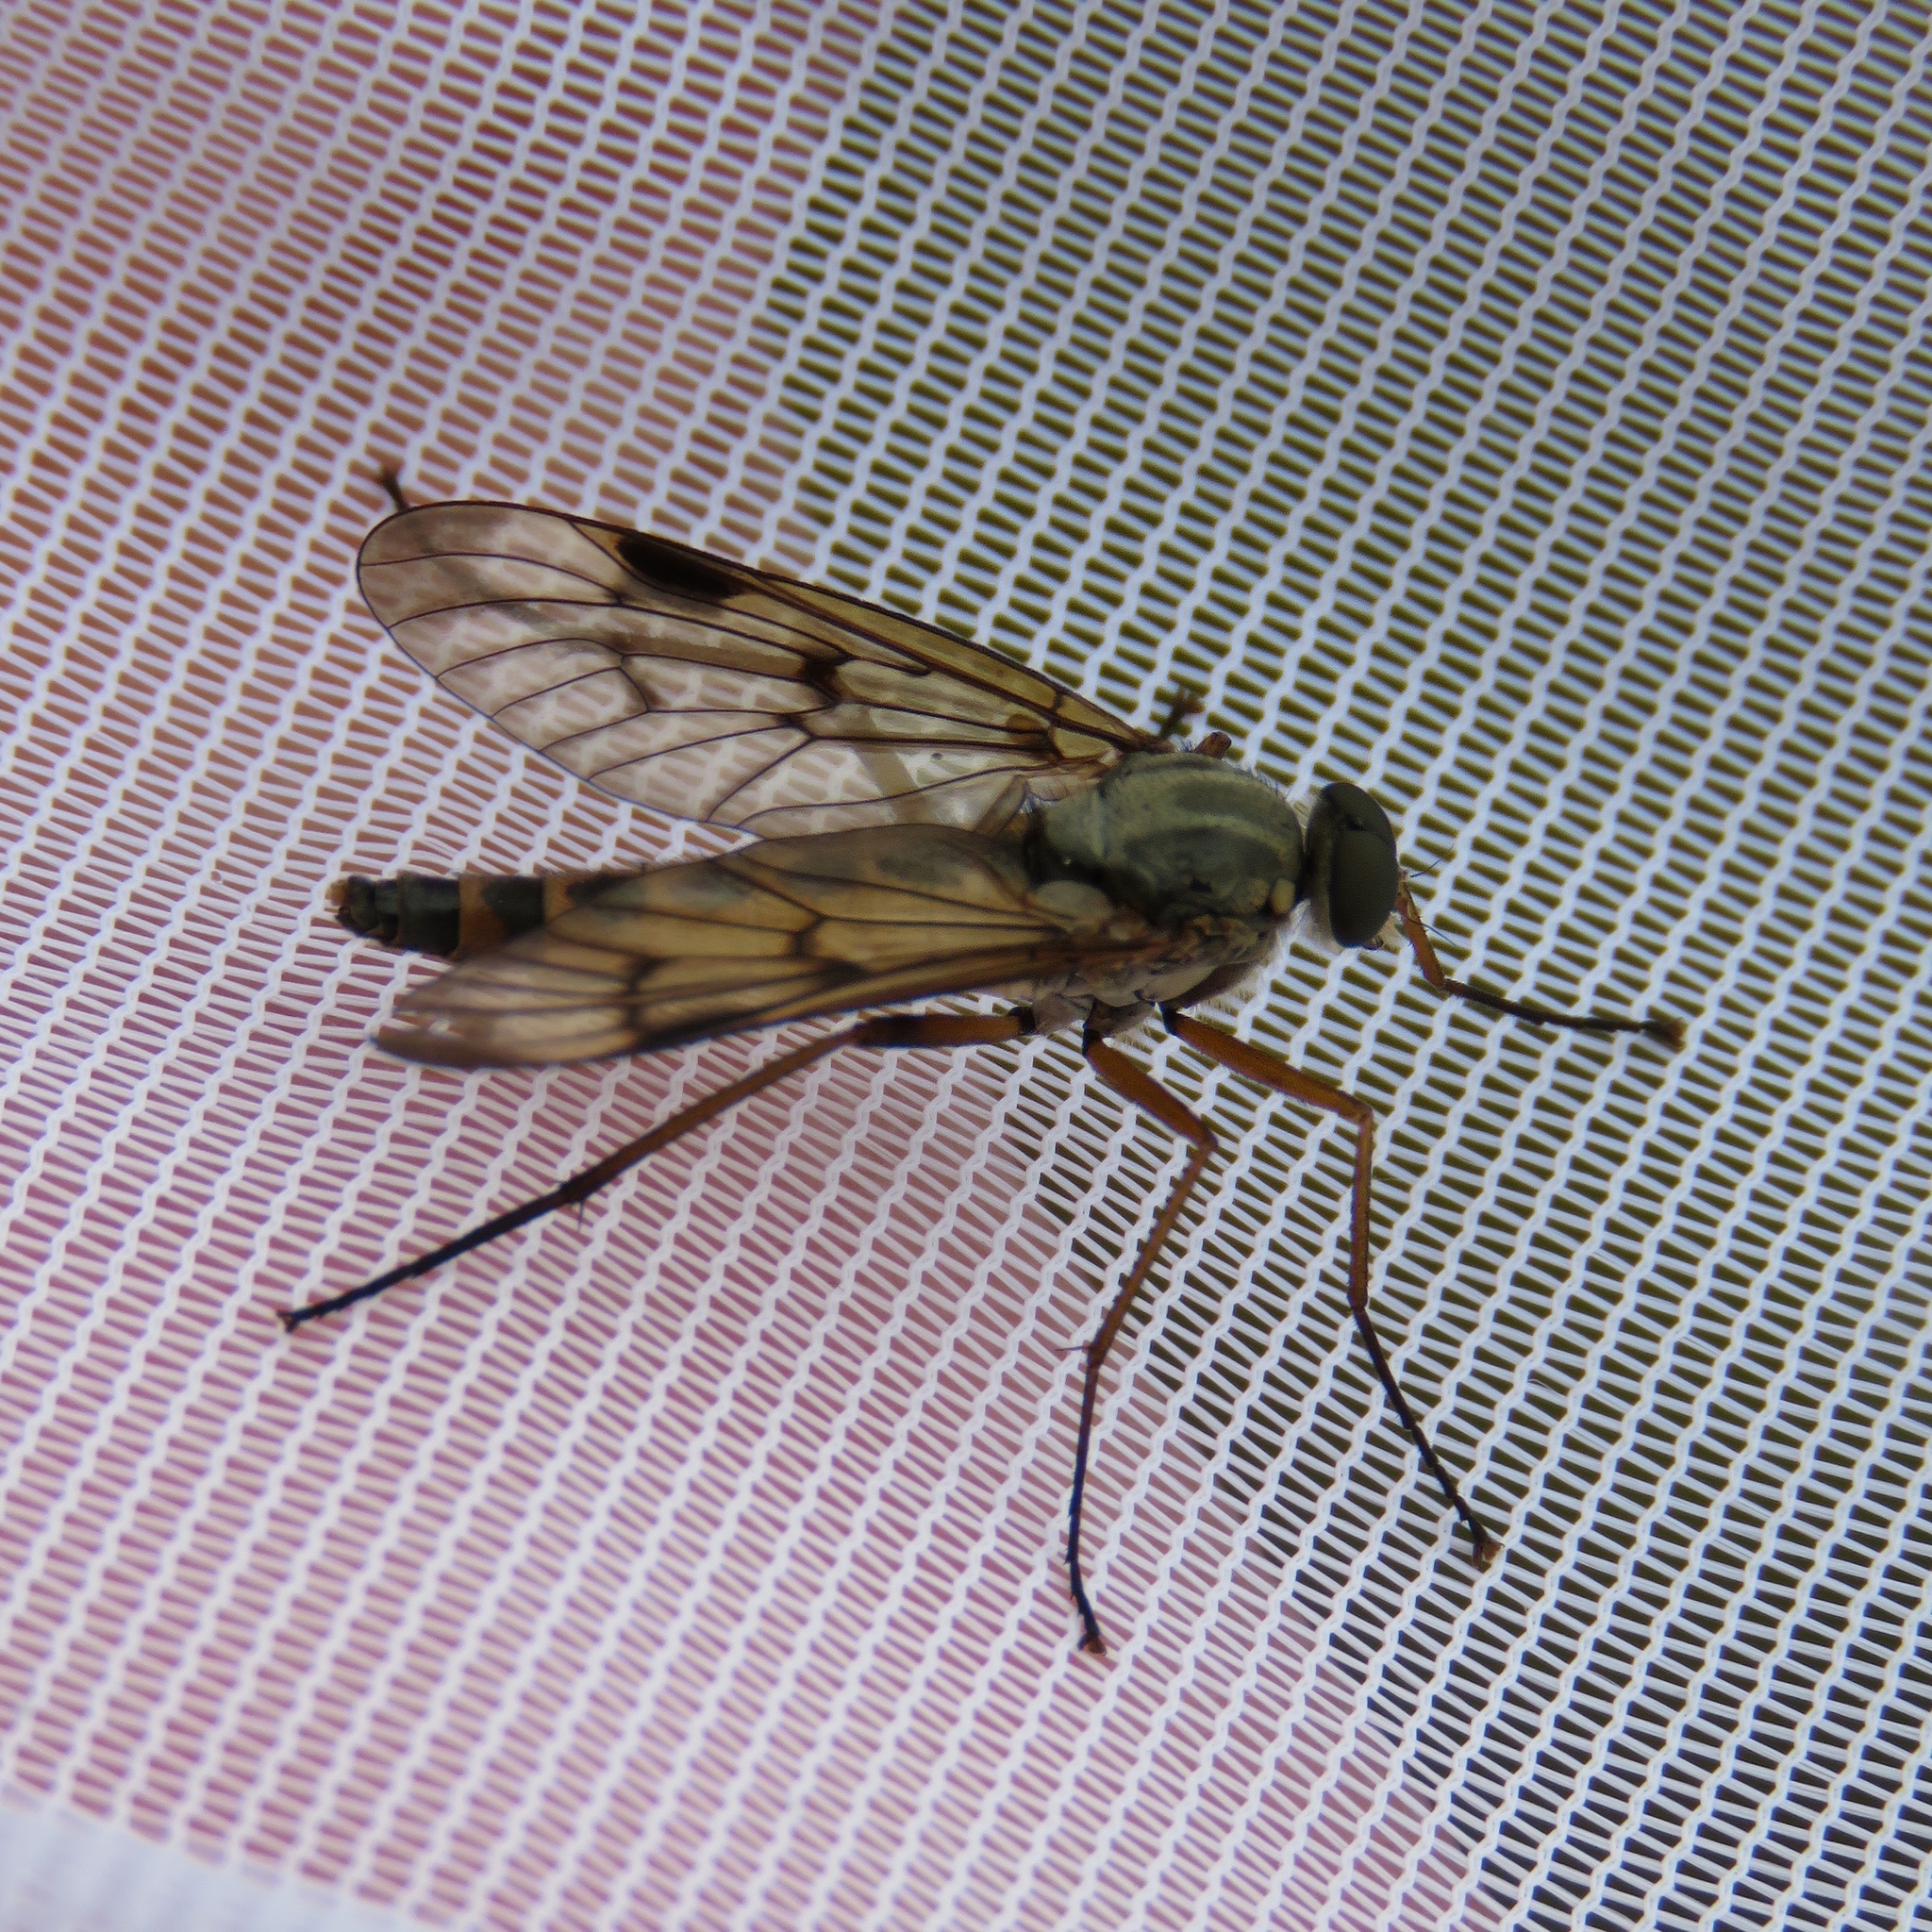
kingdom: Animalia
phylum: Arthropoda
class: Insecta
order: Diptera
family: Rhagionidae
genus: Rhagio
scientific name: Rhagio scolopacea
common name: Downlooker snipefly
